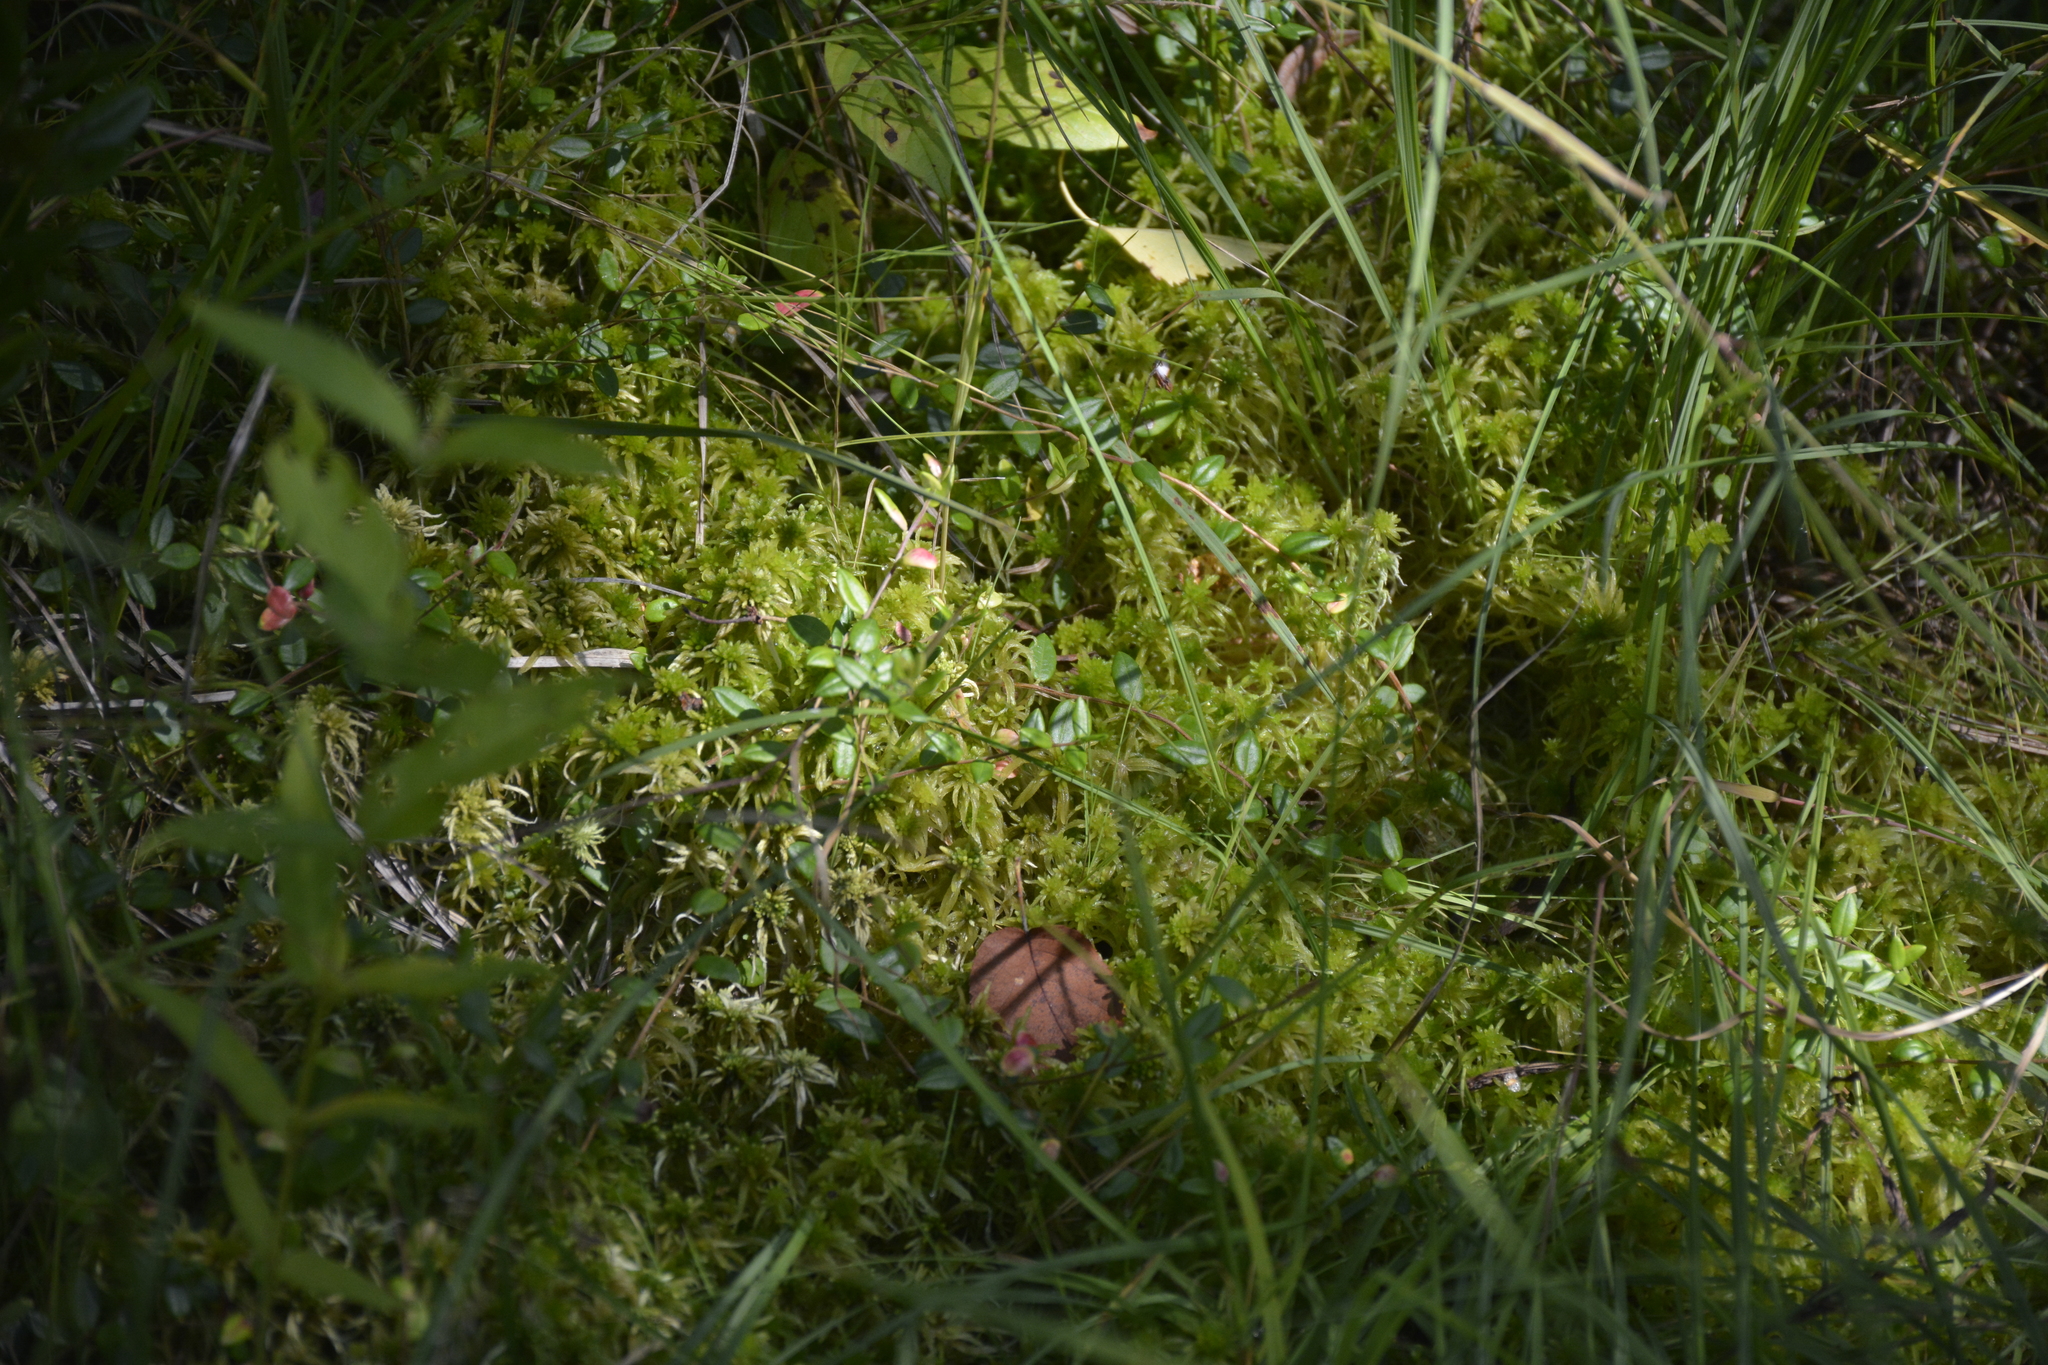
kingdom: Plantae
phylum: Tracheophyta
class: Magnoliopsida
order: Ericales
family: Ericaceae
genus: Vaccinium
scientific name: Vaccinium oxycoccos
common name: Cranberry
